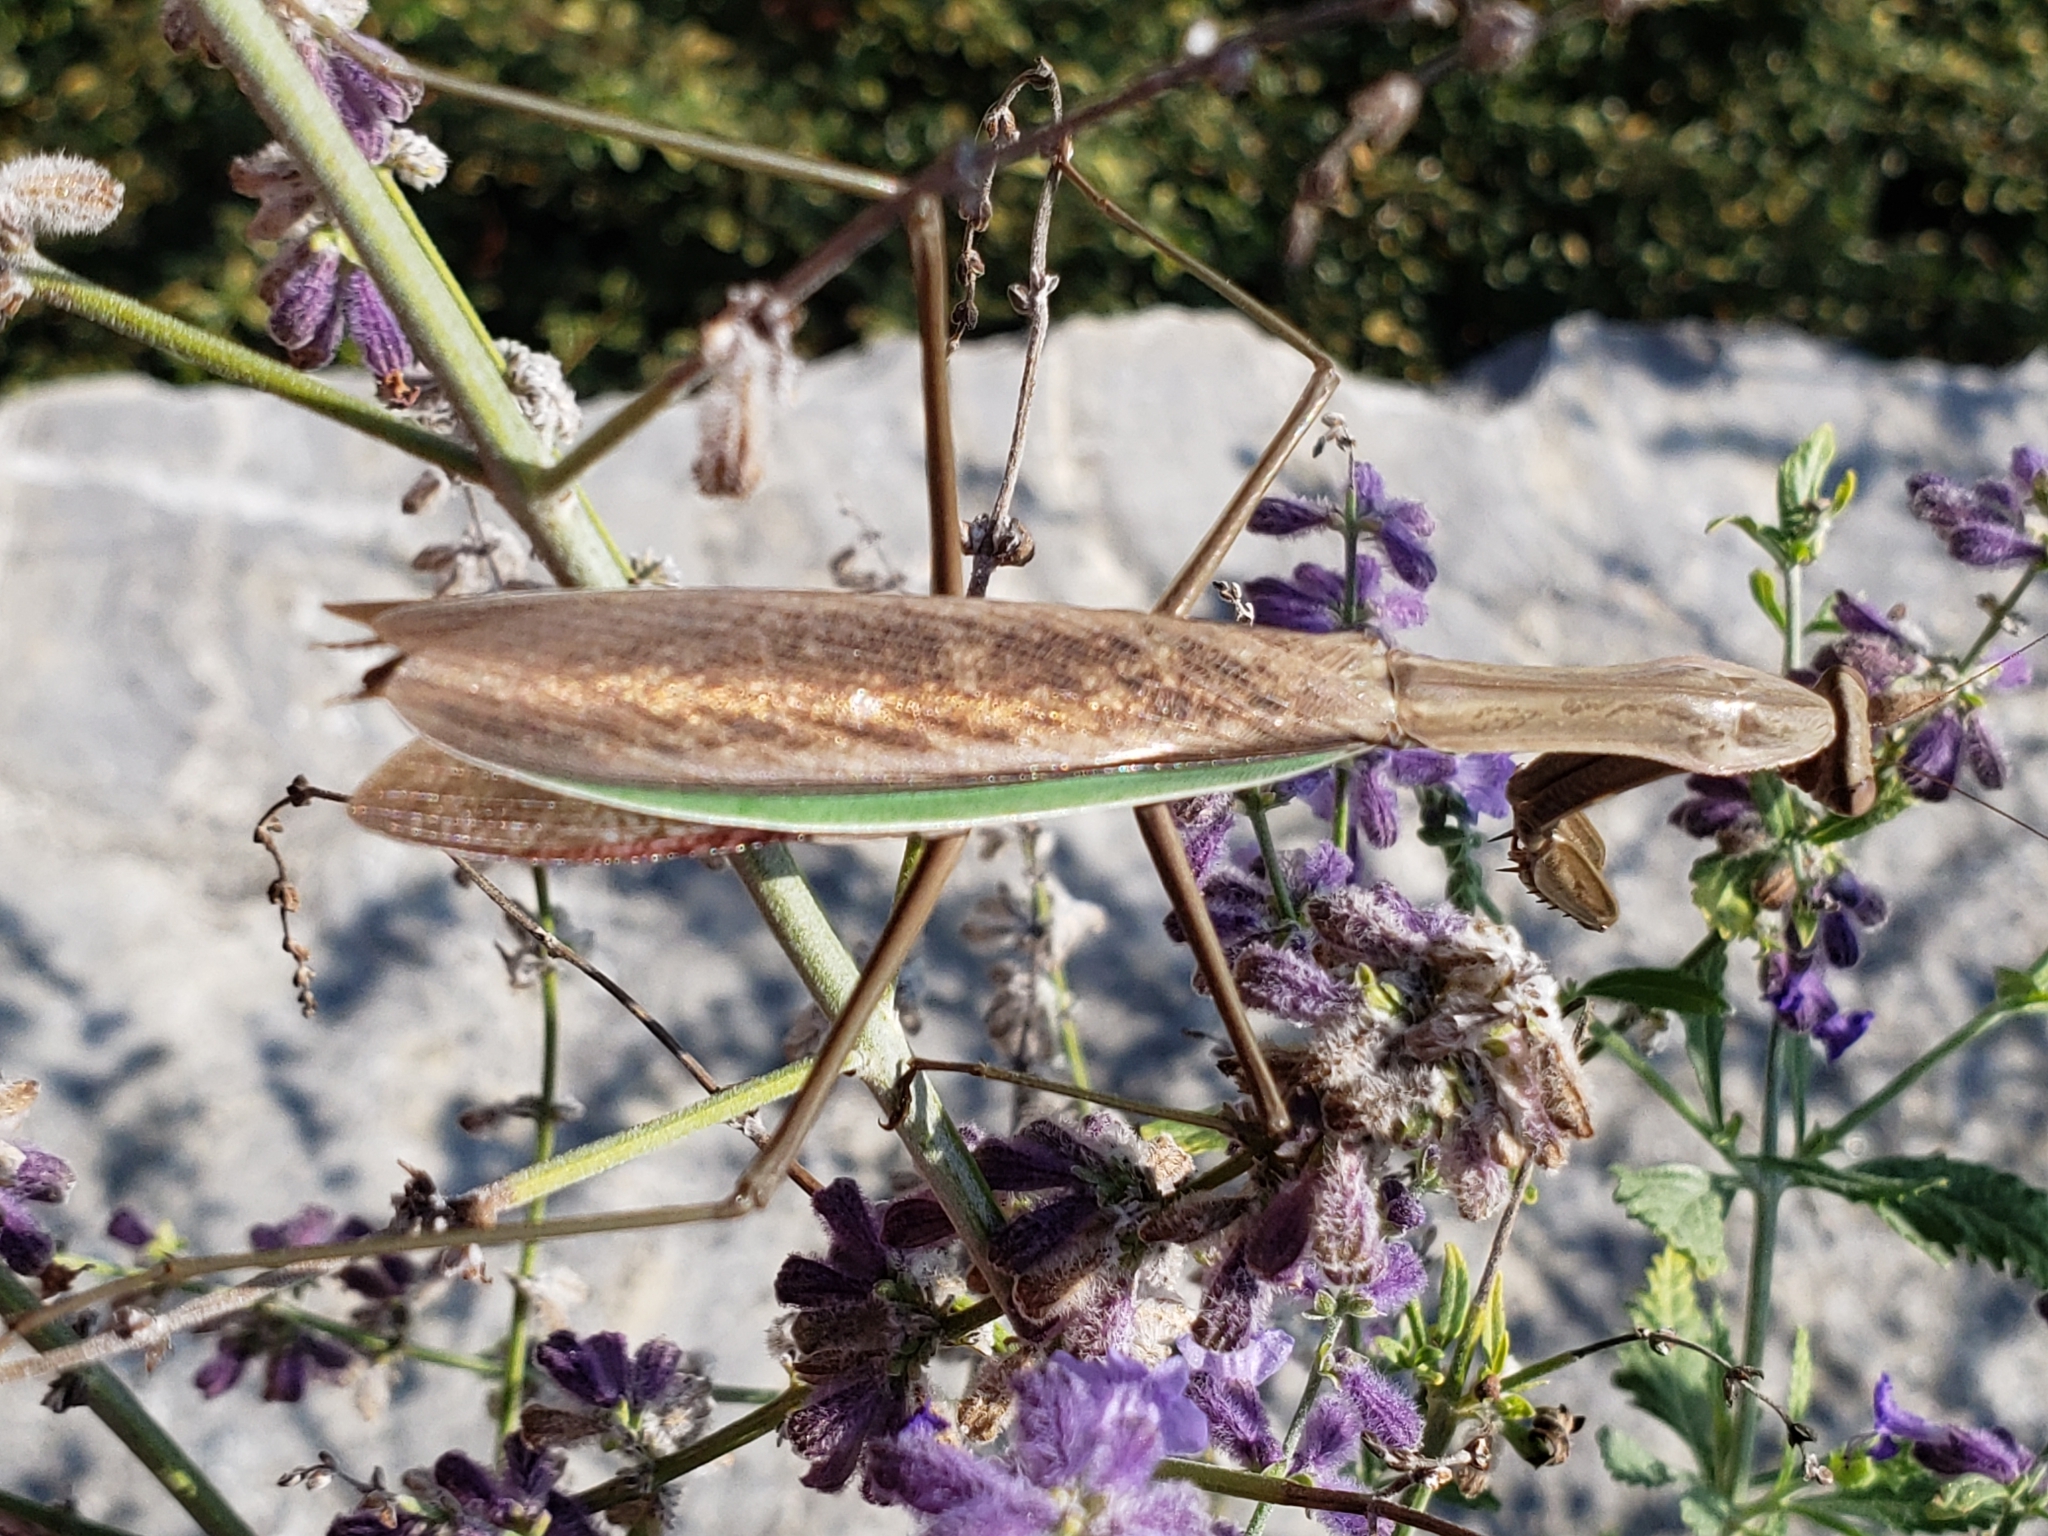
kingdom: Animalia
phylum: Arthropoda
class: Insecta
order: Mantodea
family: Mantidae
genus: Tenodera
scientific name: Tenodera sinensis
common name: Chinese mantis
